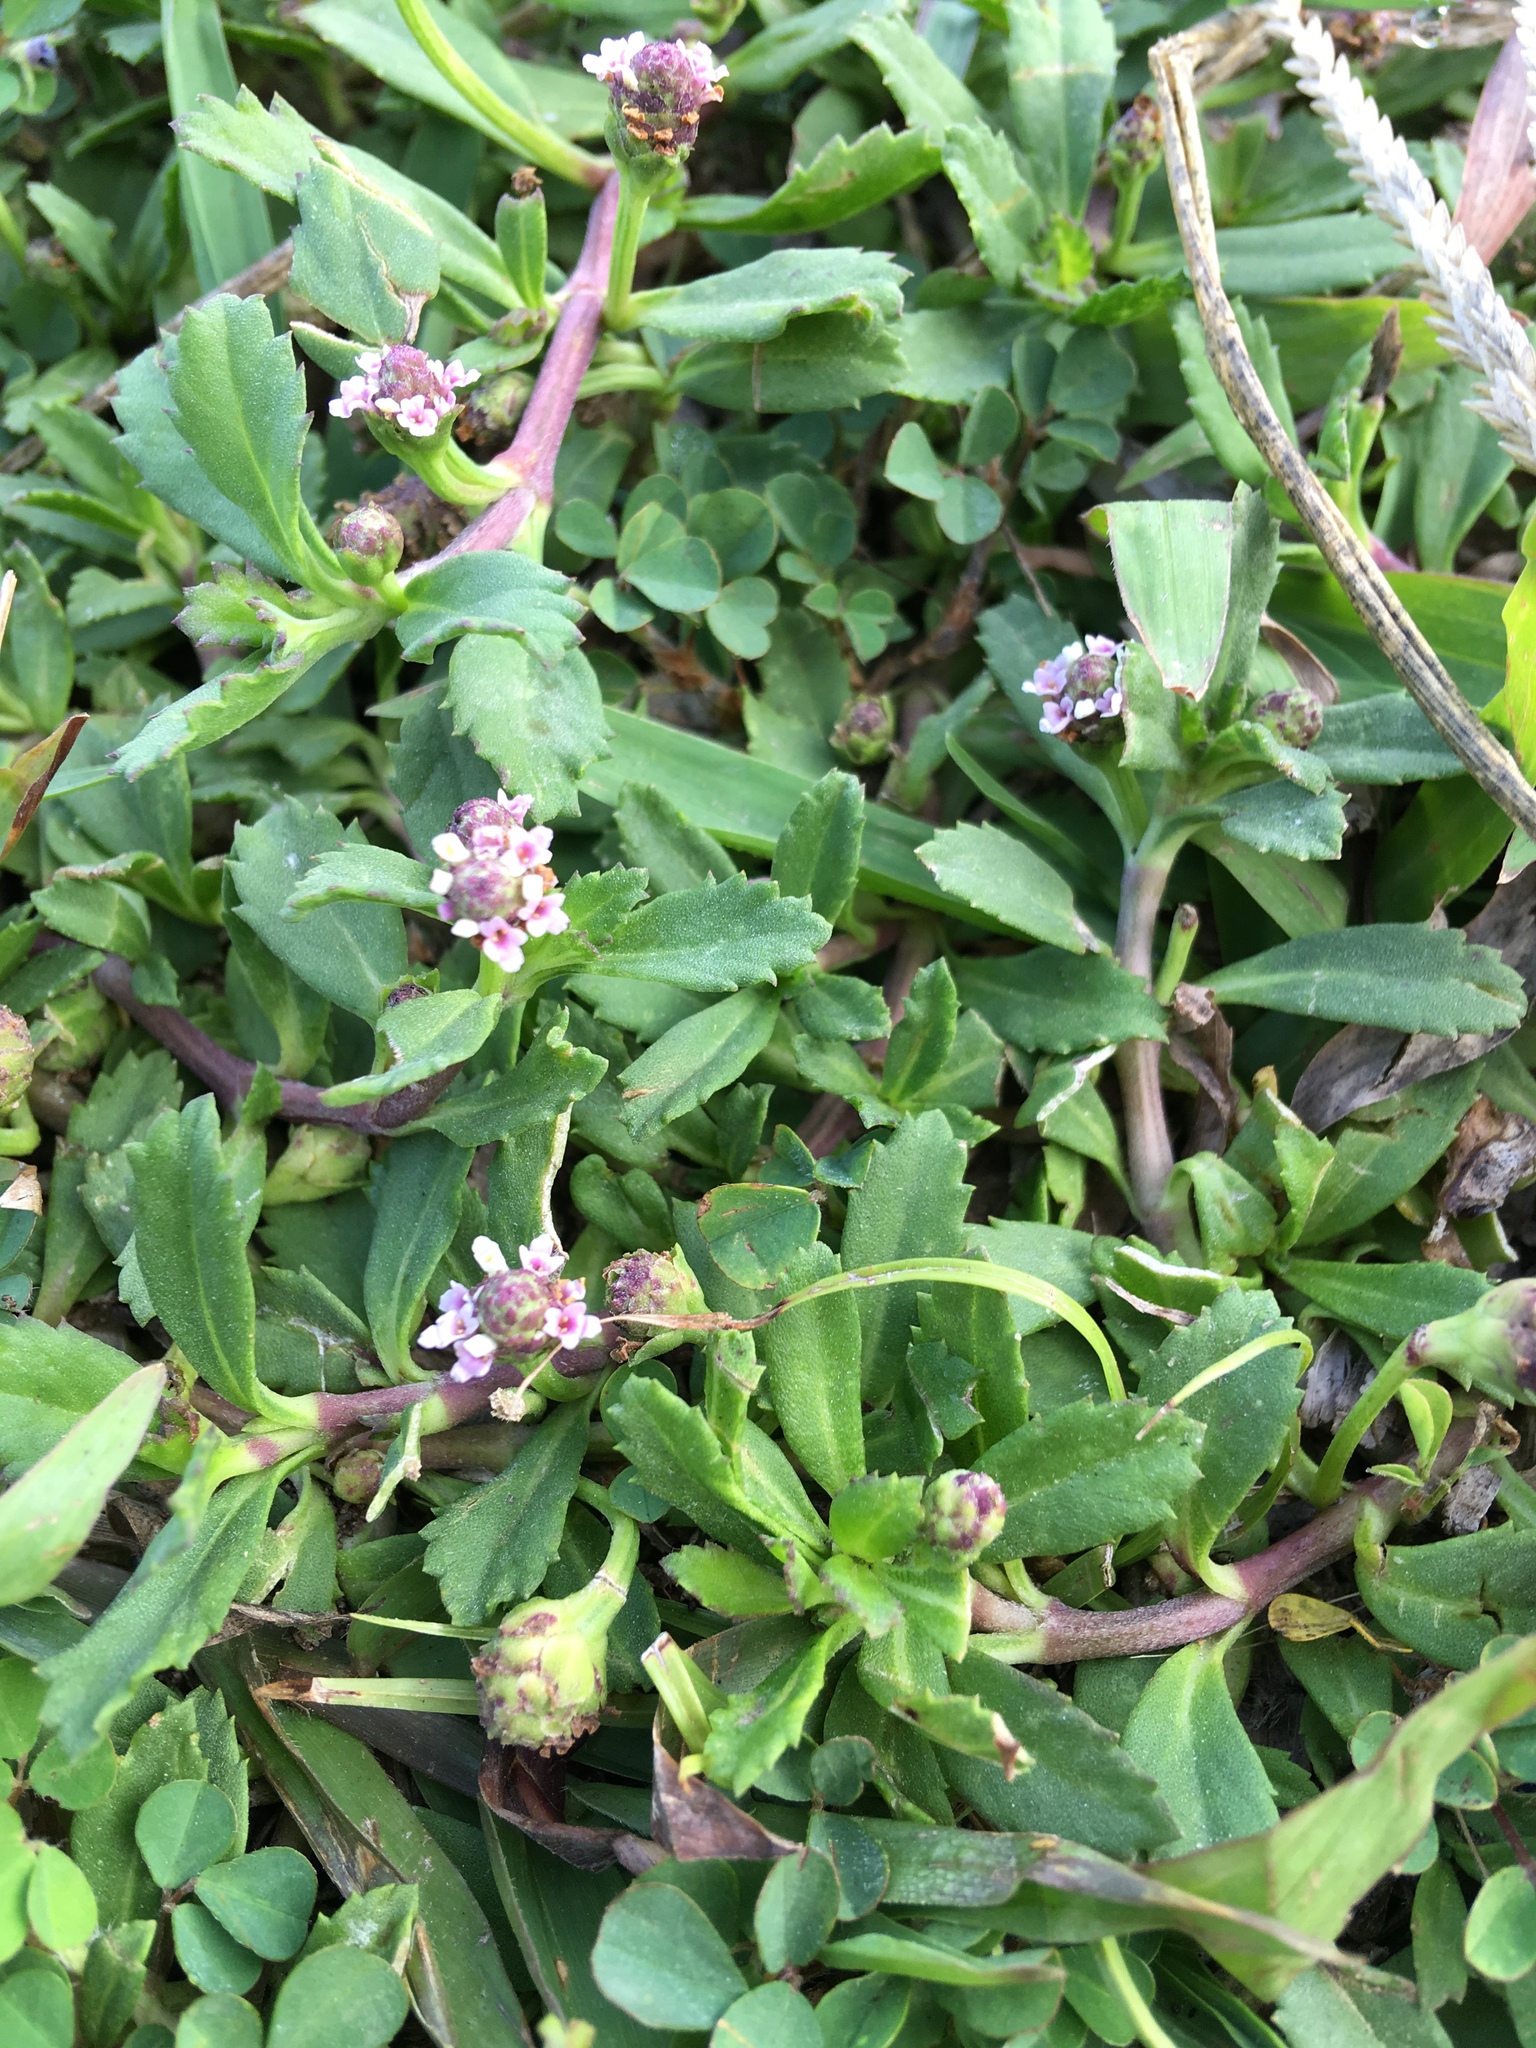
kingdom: Plantae
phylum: Tracheophyta
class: Magnoliopsida
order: Lamiales
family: Verbenaceae
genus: Phyla
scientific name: Phyla nodiflora
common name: Frogfruit
